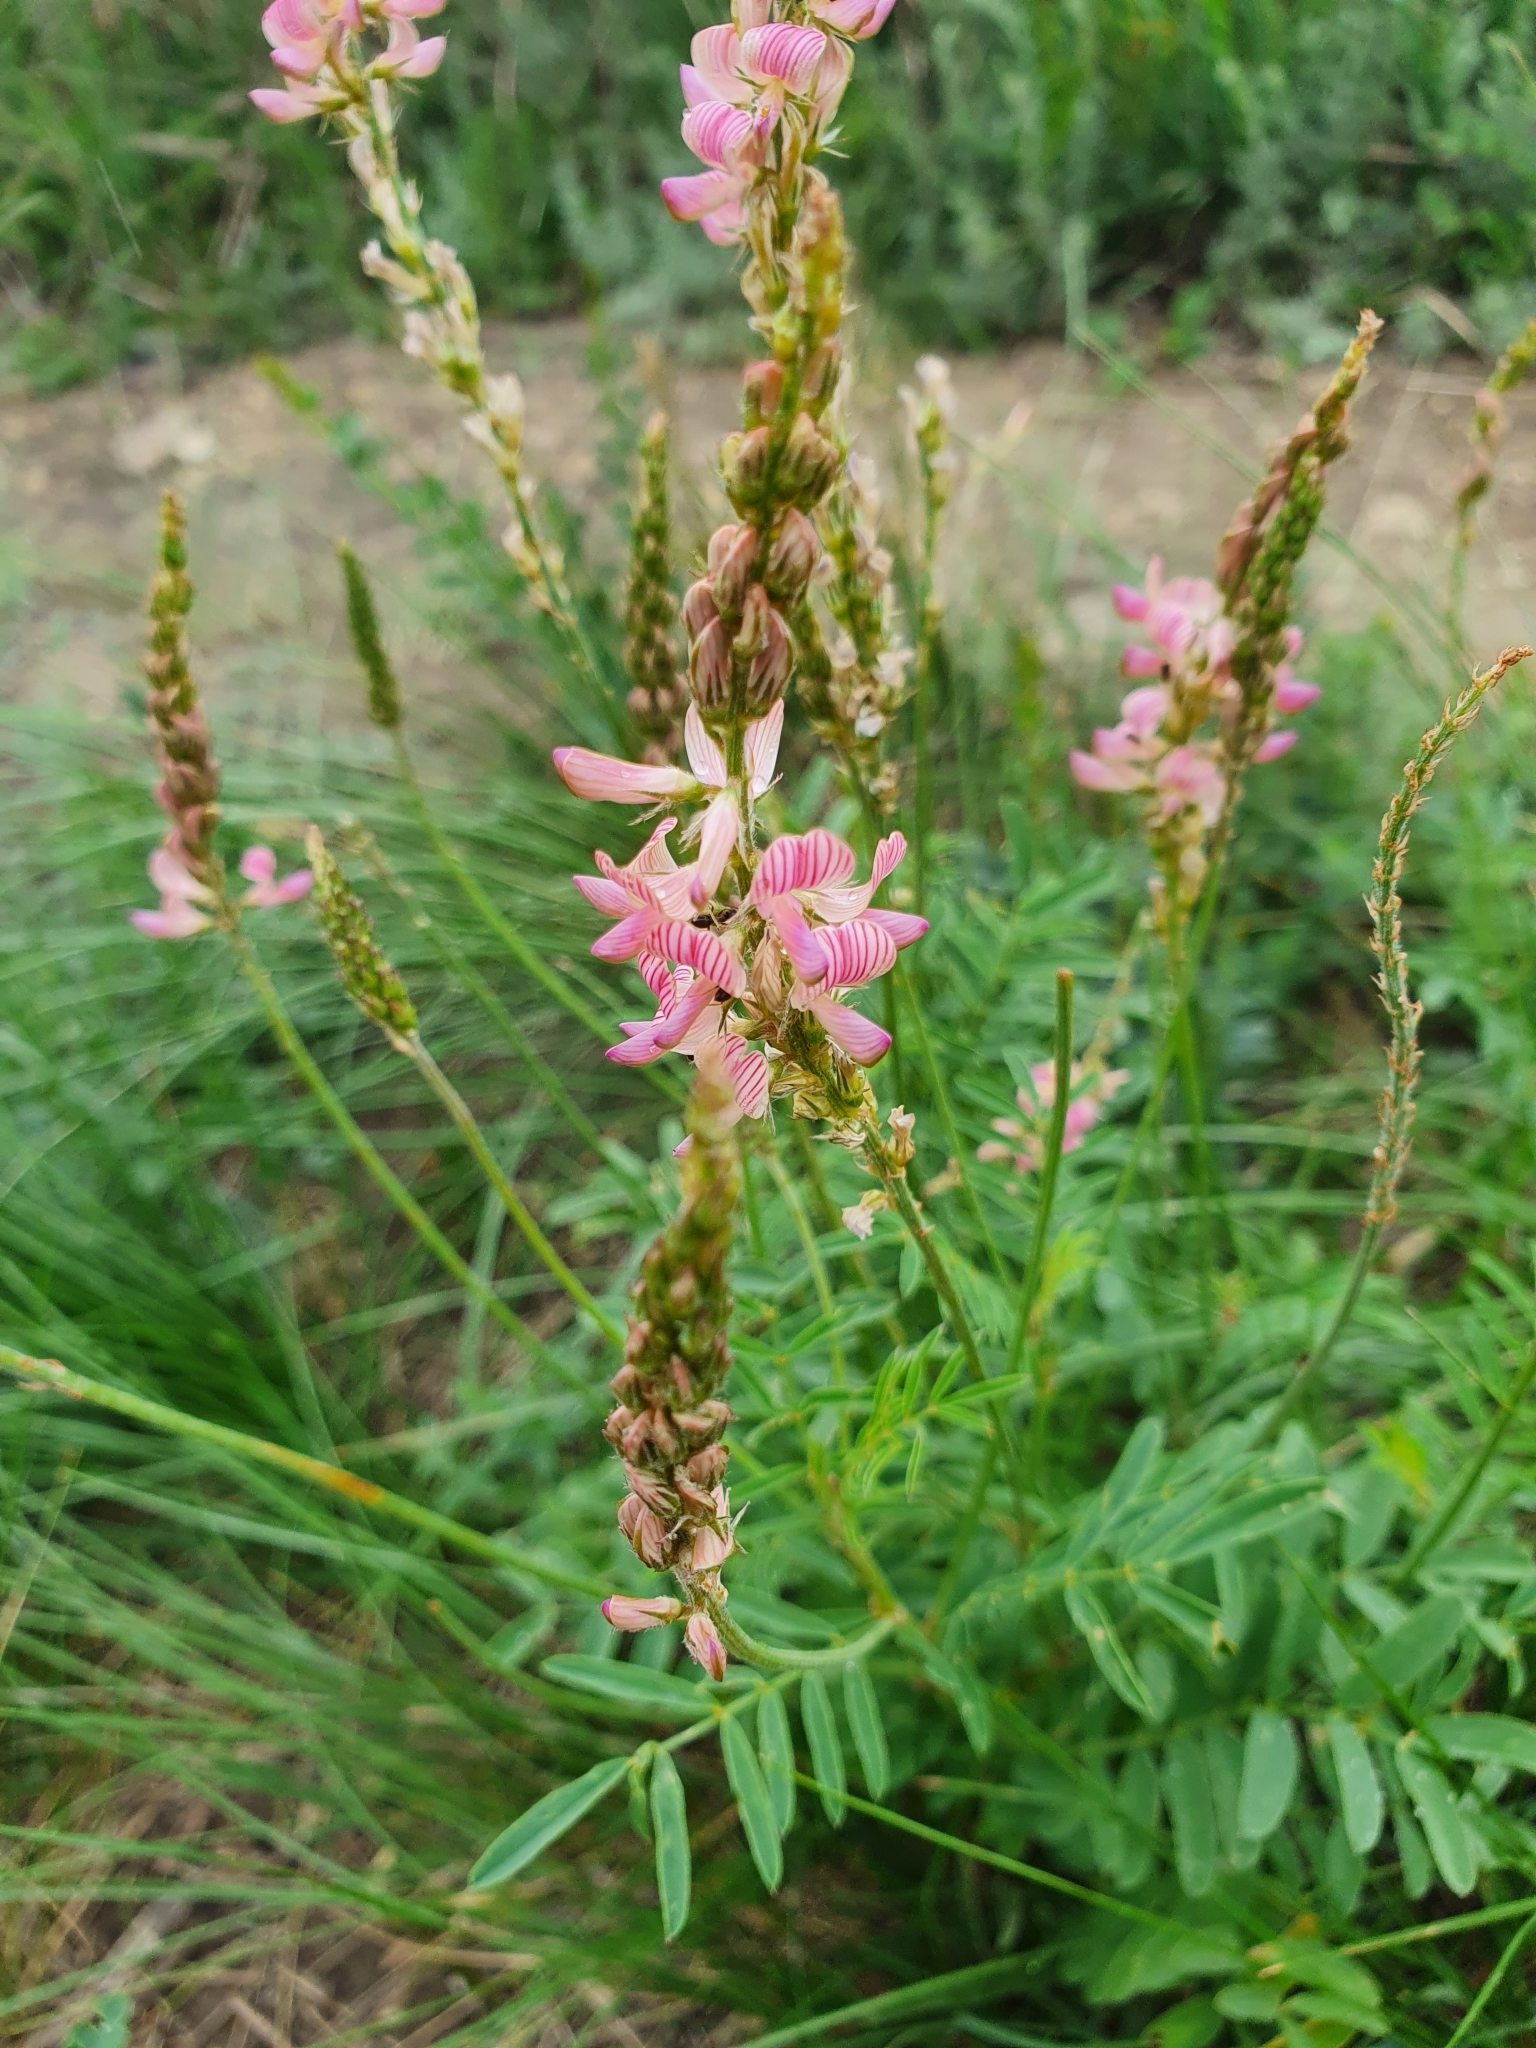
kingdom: Plantae
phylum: Tracheophyta
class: Magnoliopsida
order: Fabales
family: Fabaceae
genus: Onobrychis
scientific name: Onobrychis viciifolia
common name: Sainfoin
